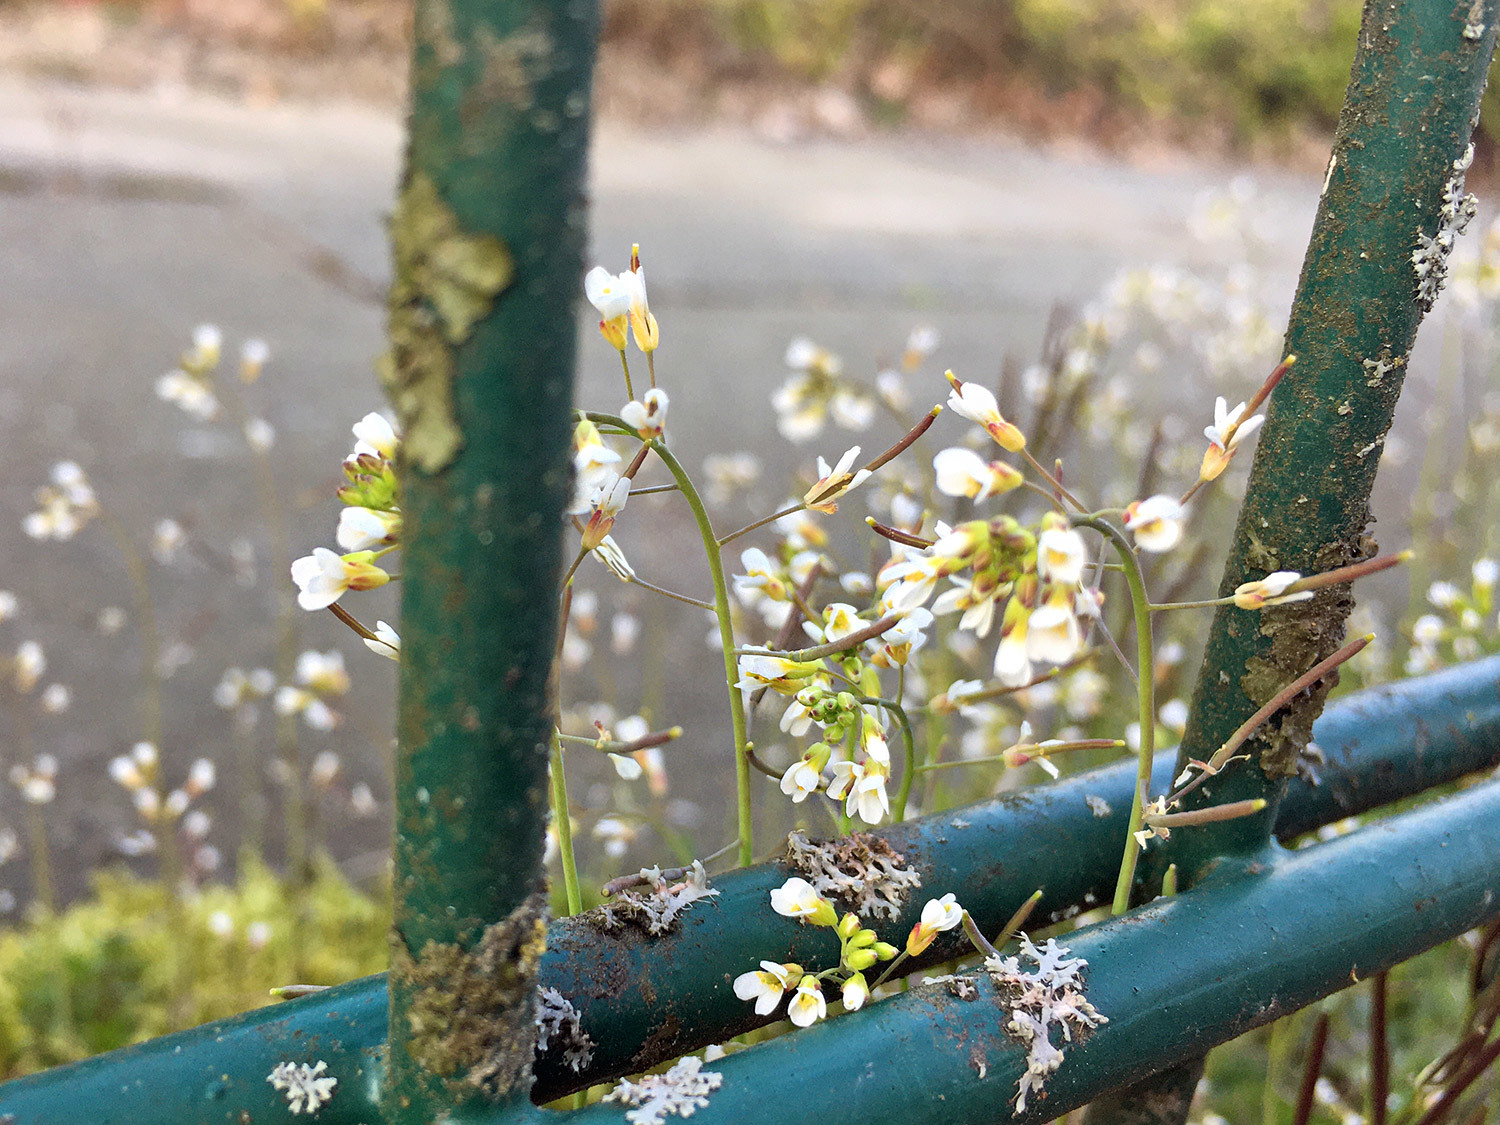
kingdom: Plantae
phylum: Tracheophyta
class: Magnoliopsida
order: Brassicales
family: Brassicaceae
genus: Arabidopsis
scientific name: Arabidopsis thaliana
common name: Thale cress
